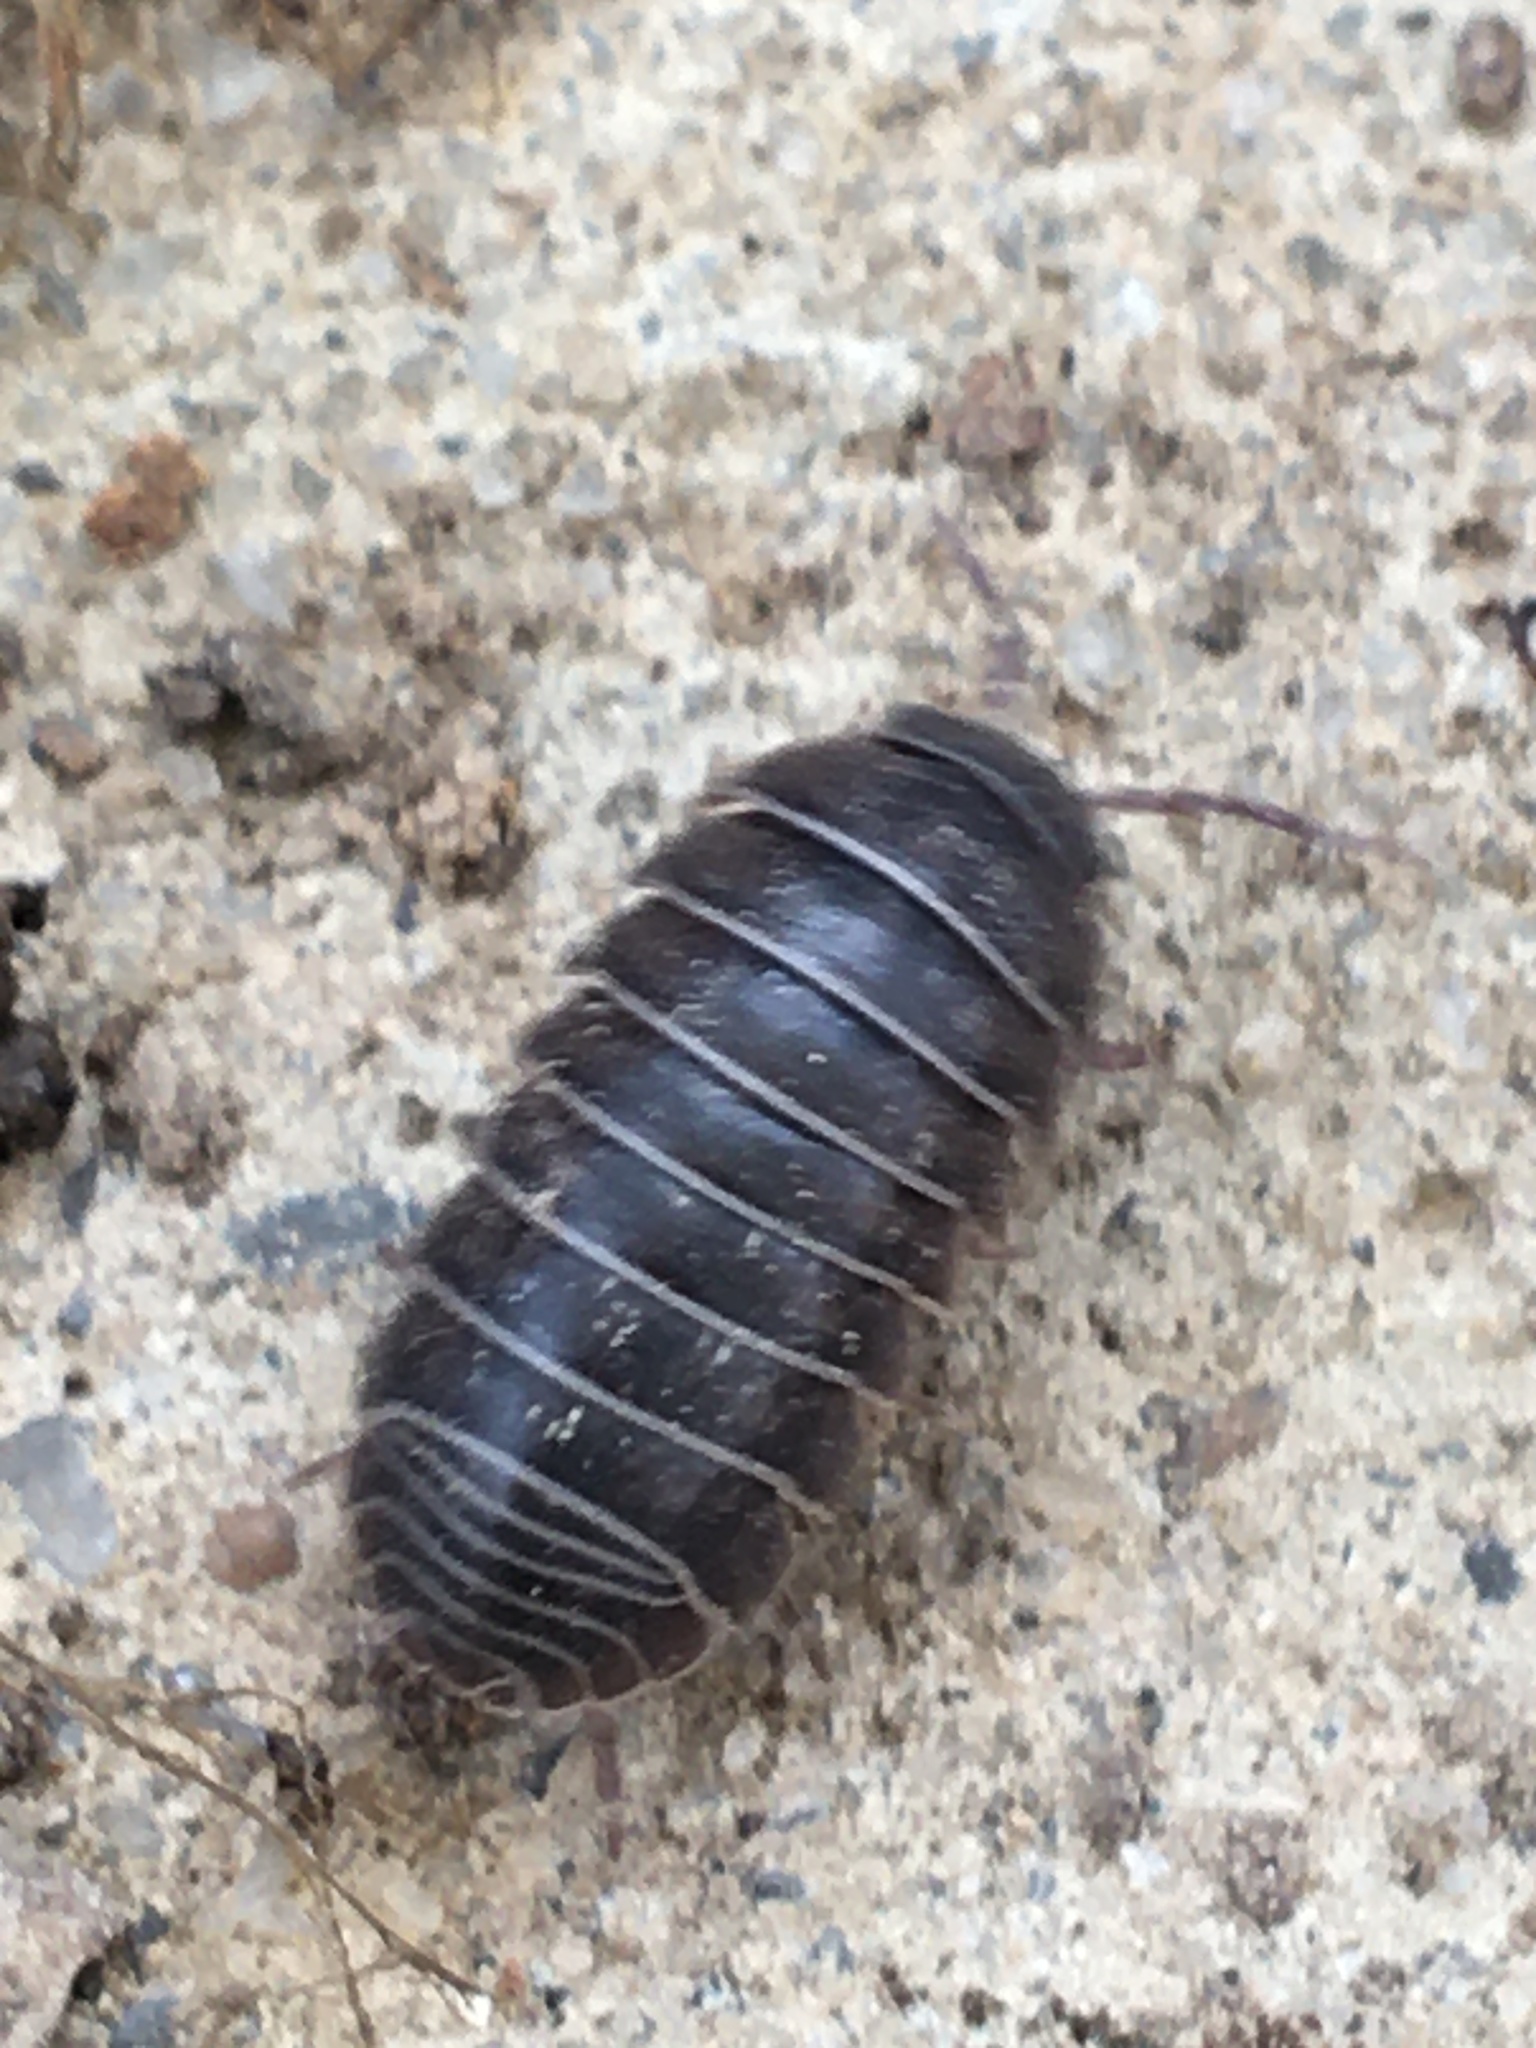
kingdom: Animalia
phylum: Arthropoda
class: Malacostraca
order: Isopoda
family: Armadillidiidae
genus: Armadillidium
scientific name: Armadillidium vulgare
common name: Common pill woodlouse
